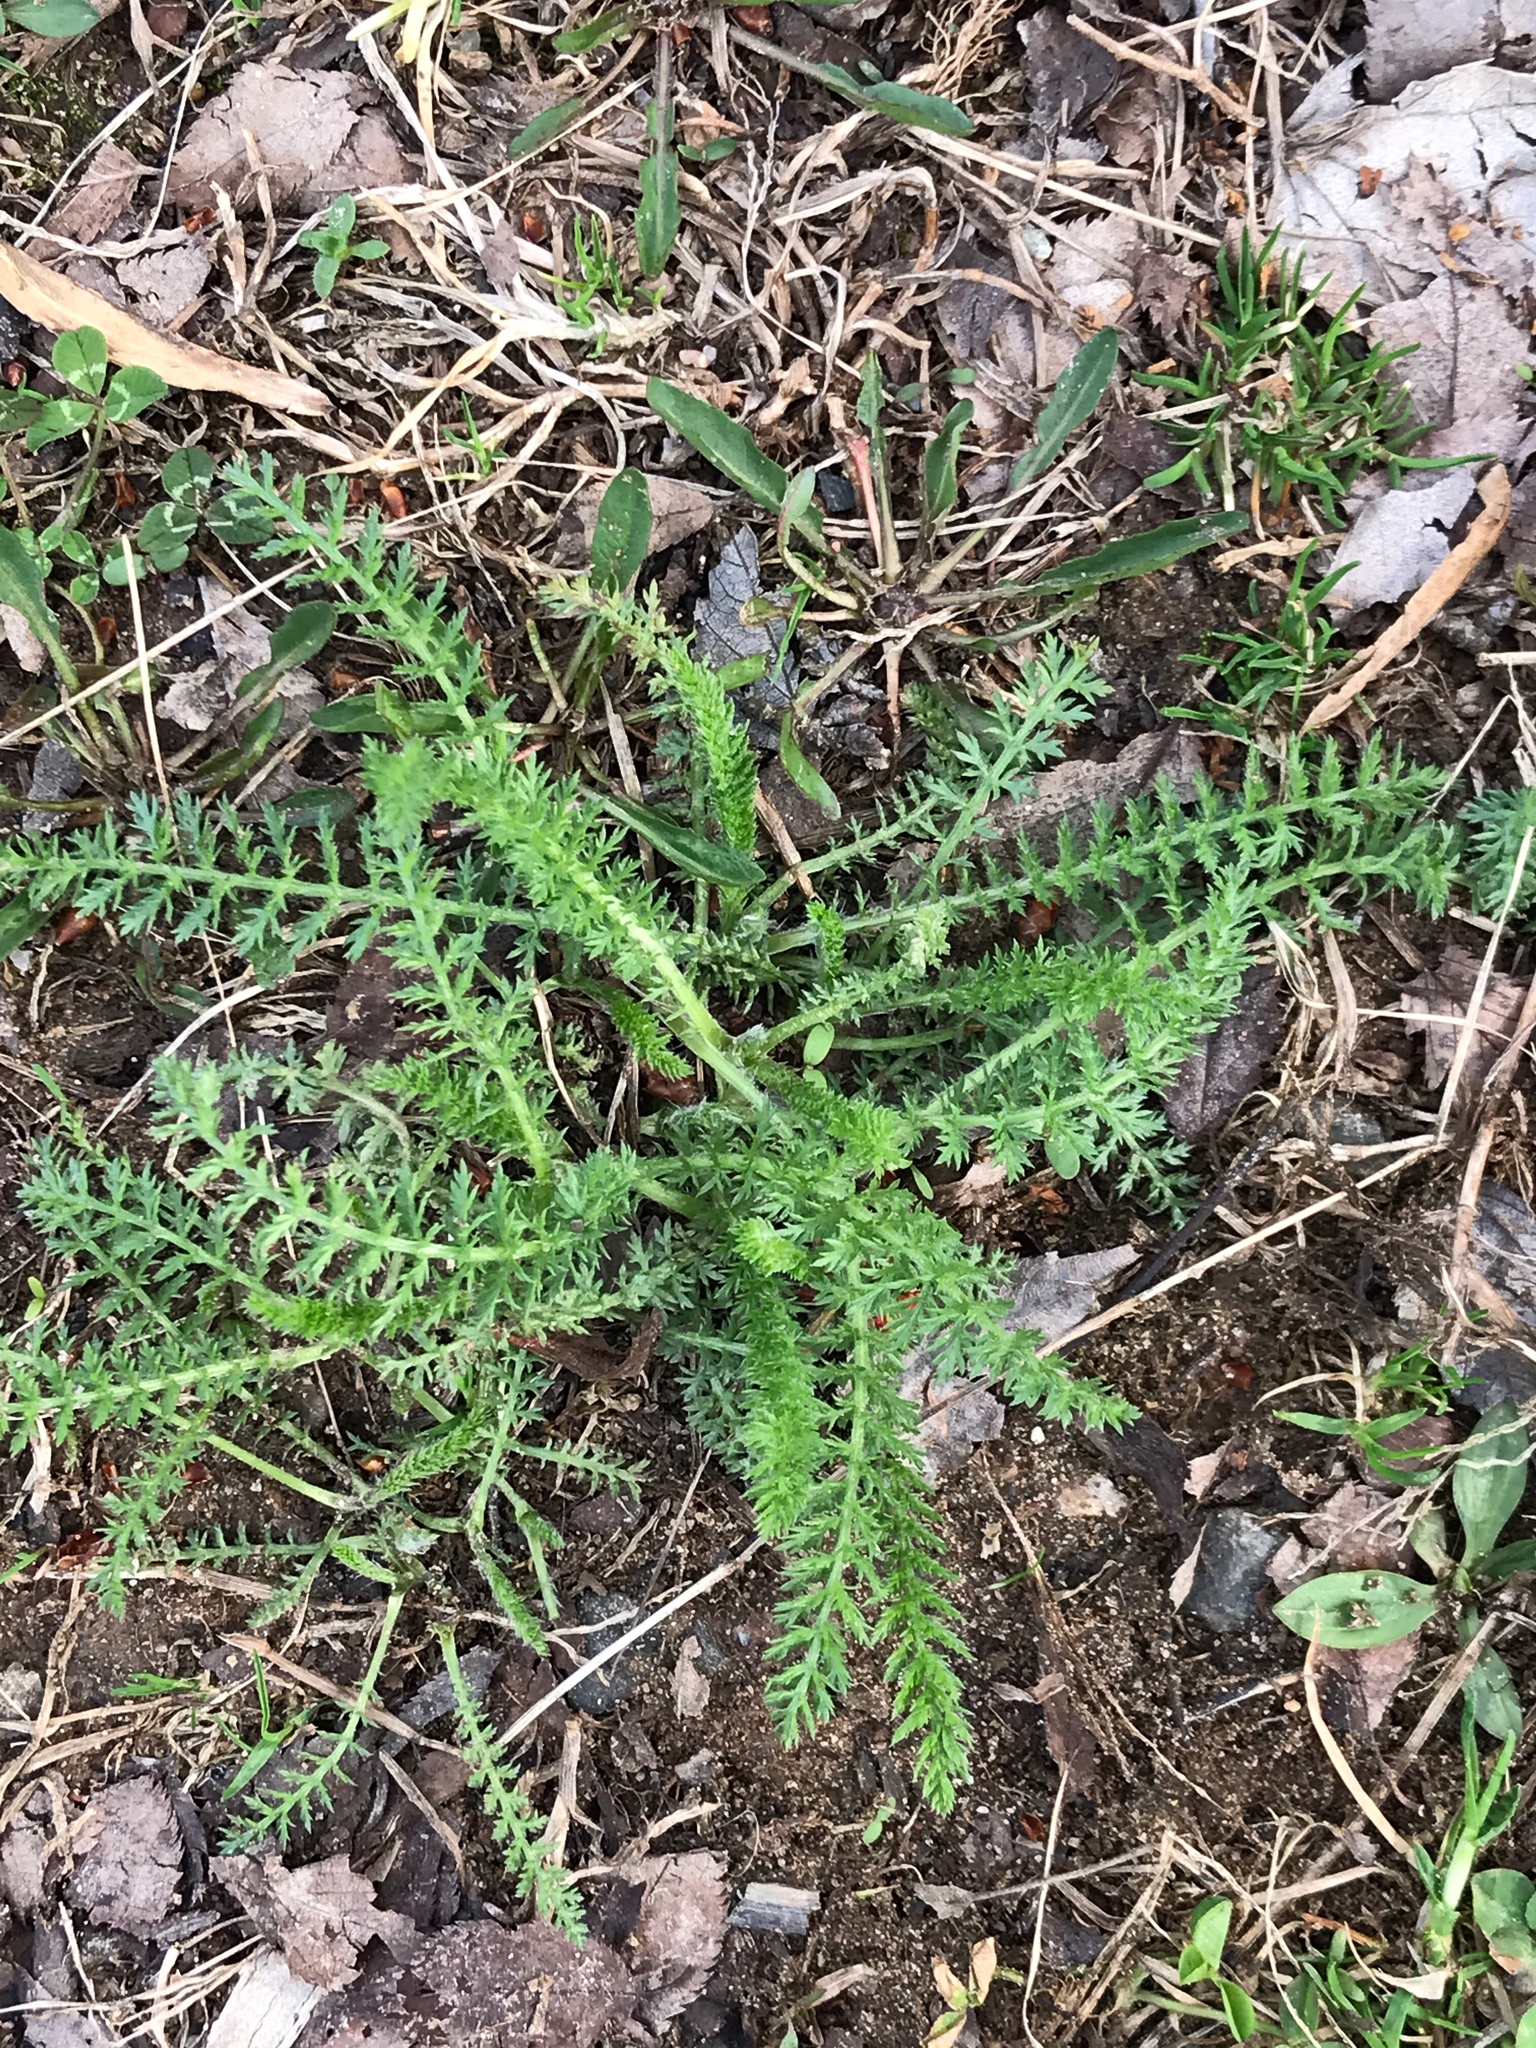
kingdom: Plantae
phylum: Tracheophyta
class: Magnoliopsida
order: Asterales
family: Asteraceae
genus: Achillea
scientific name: Achillea millefolium
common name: Yarrow
